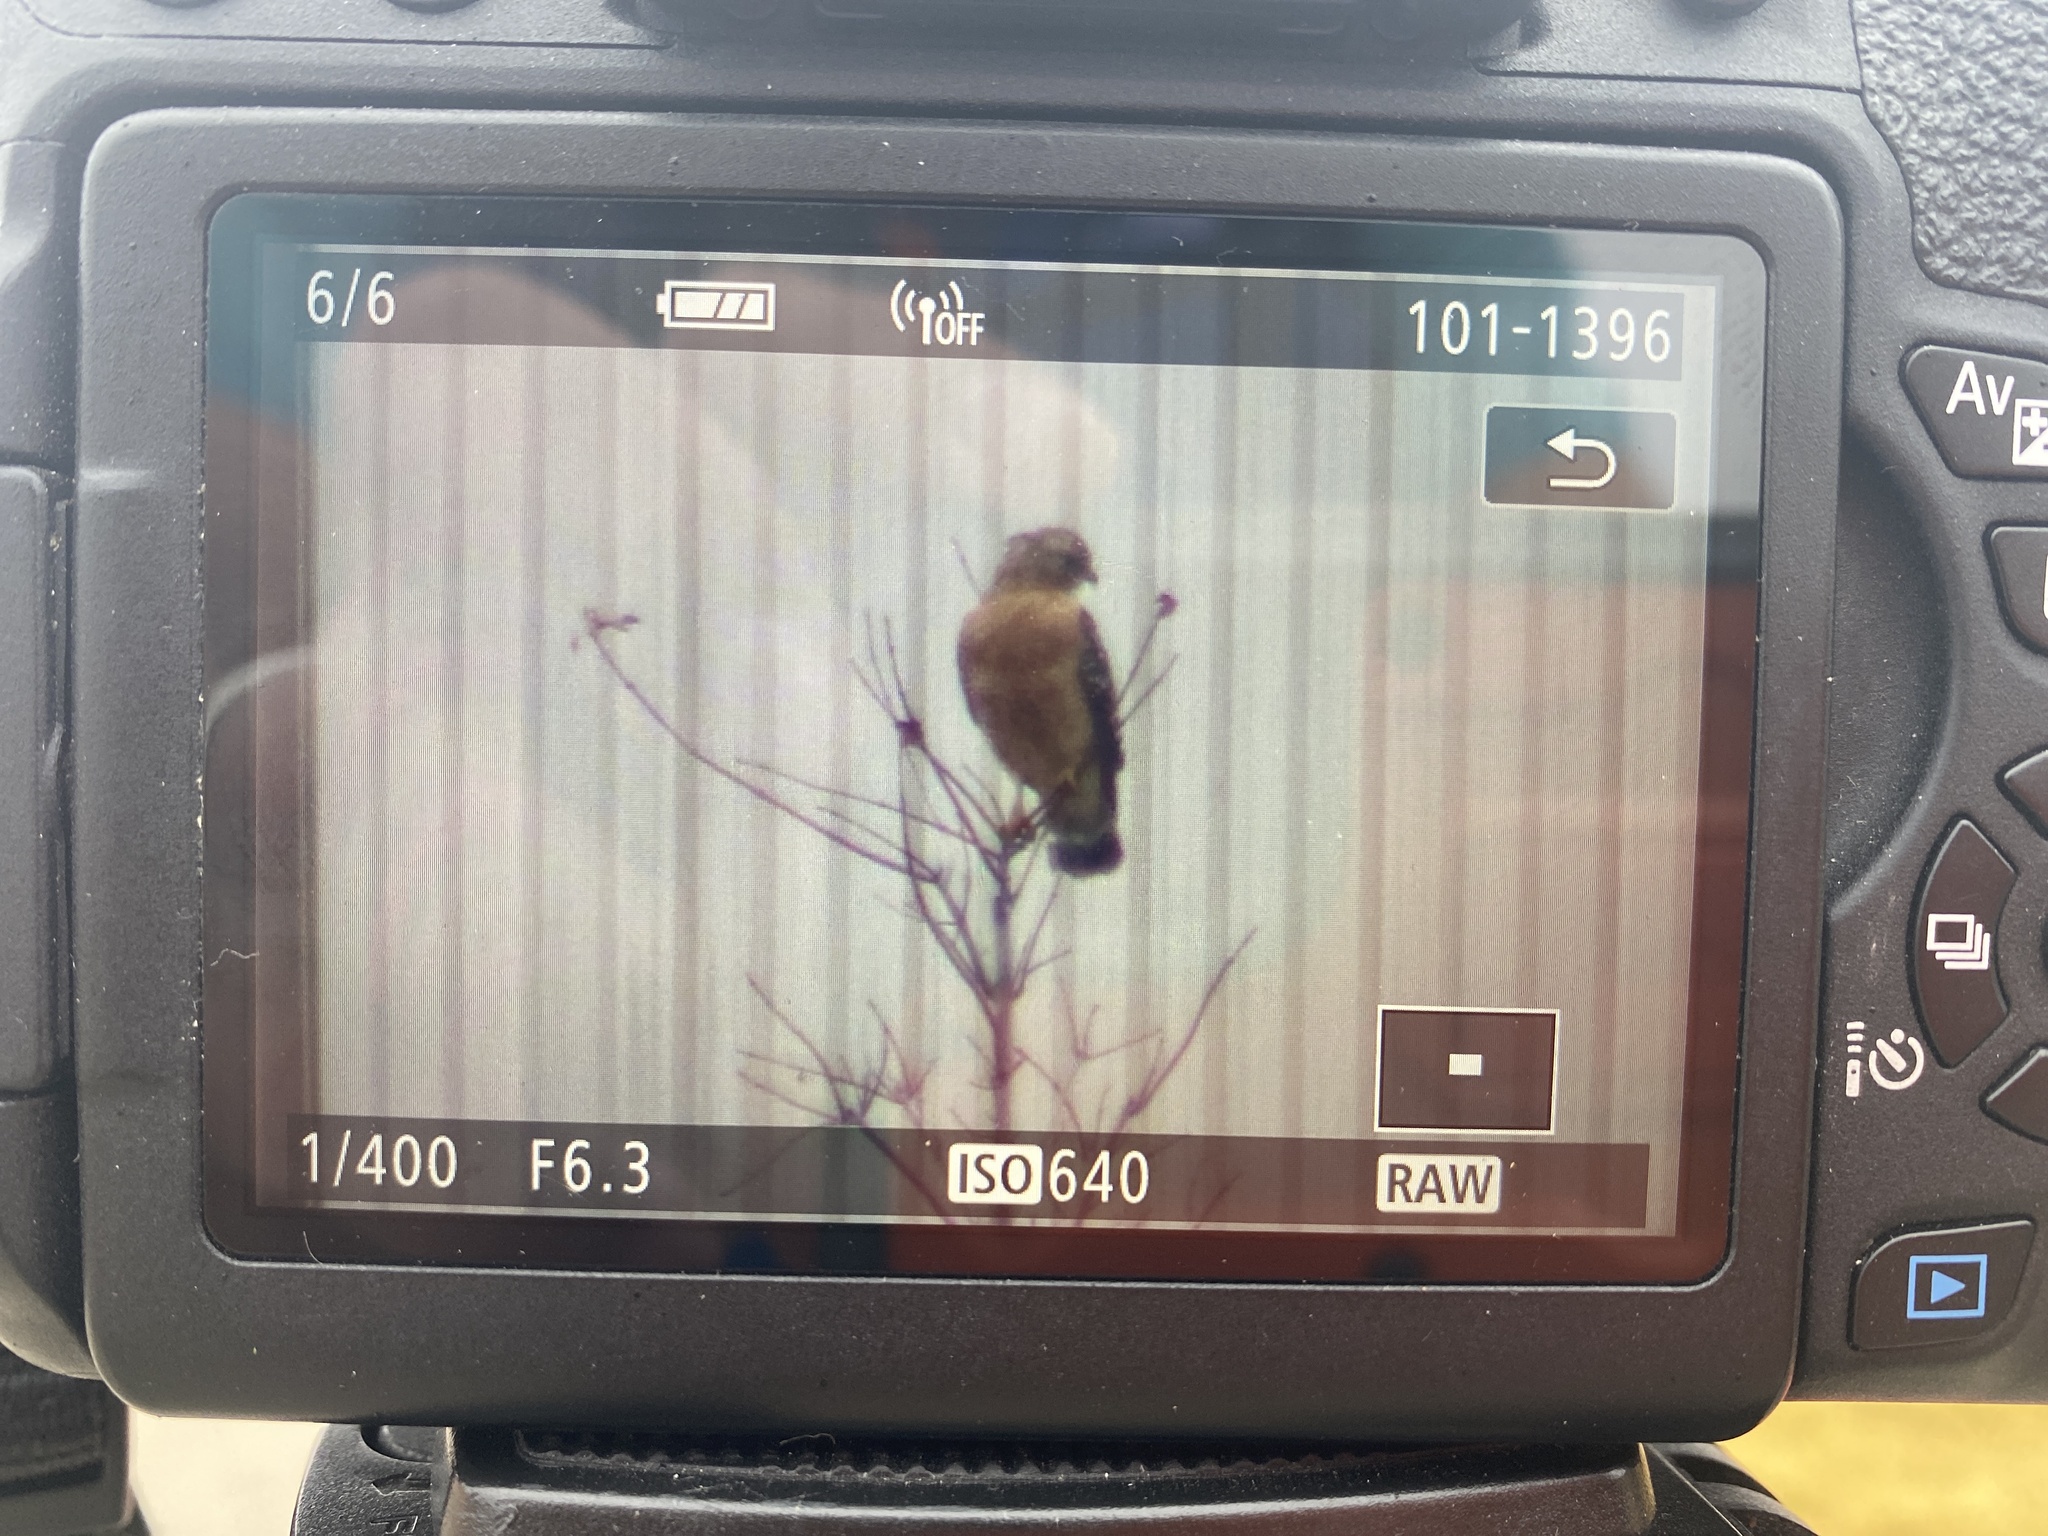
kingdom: Animalia
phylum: Chordata
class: Aves
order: Accipitriformes
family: Accipitridae
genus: Buteo
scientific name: Buteo lineatus
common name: Red-shouldered hawk
